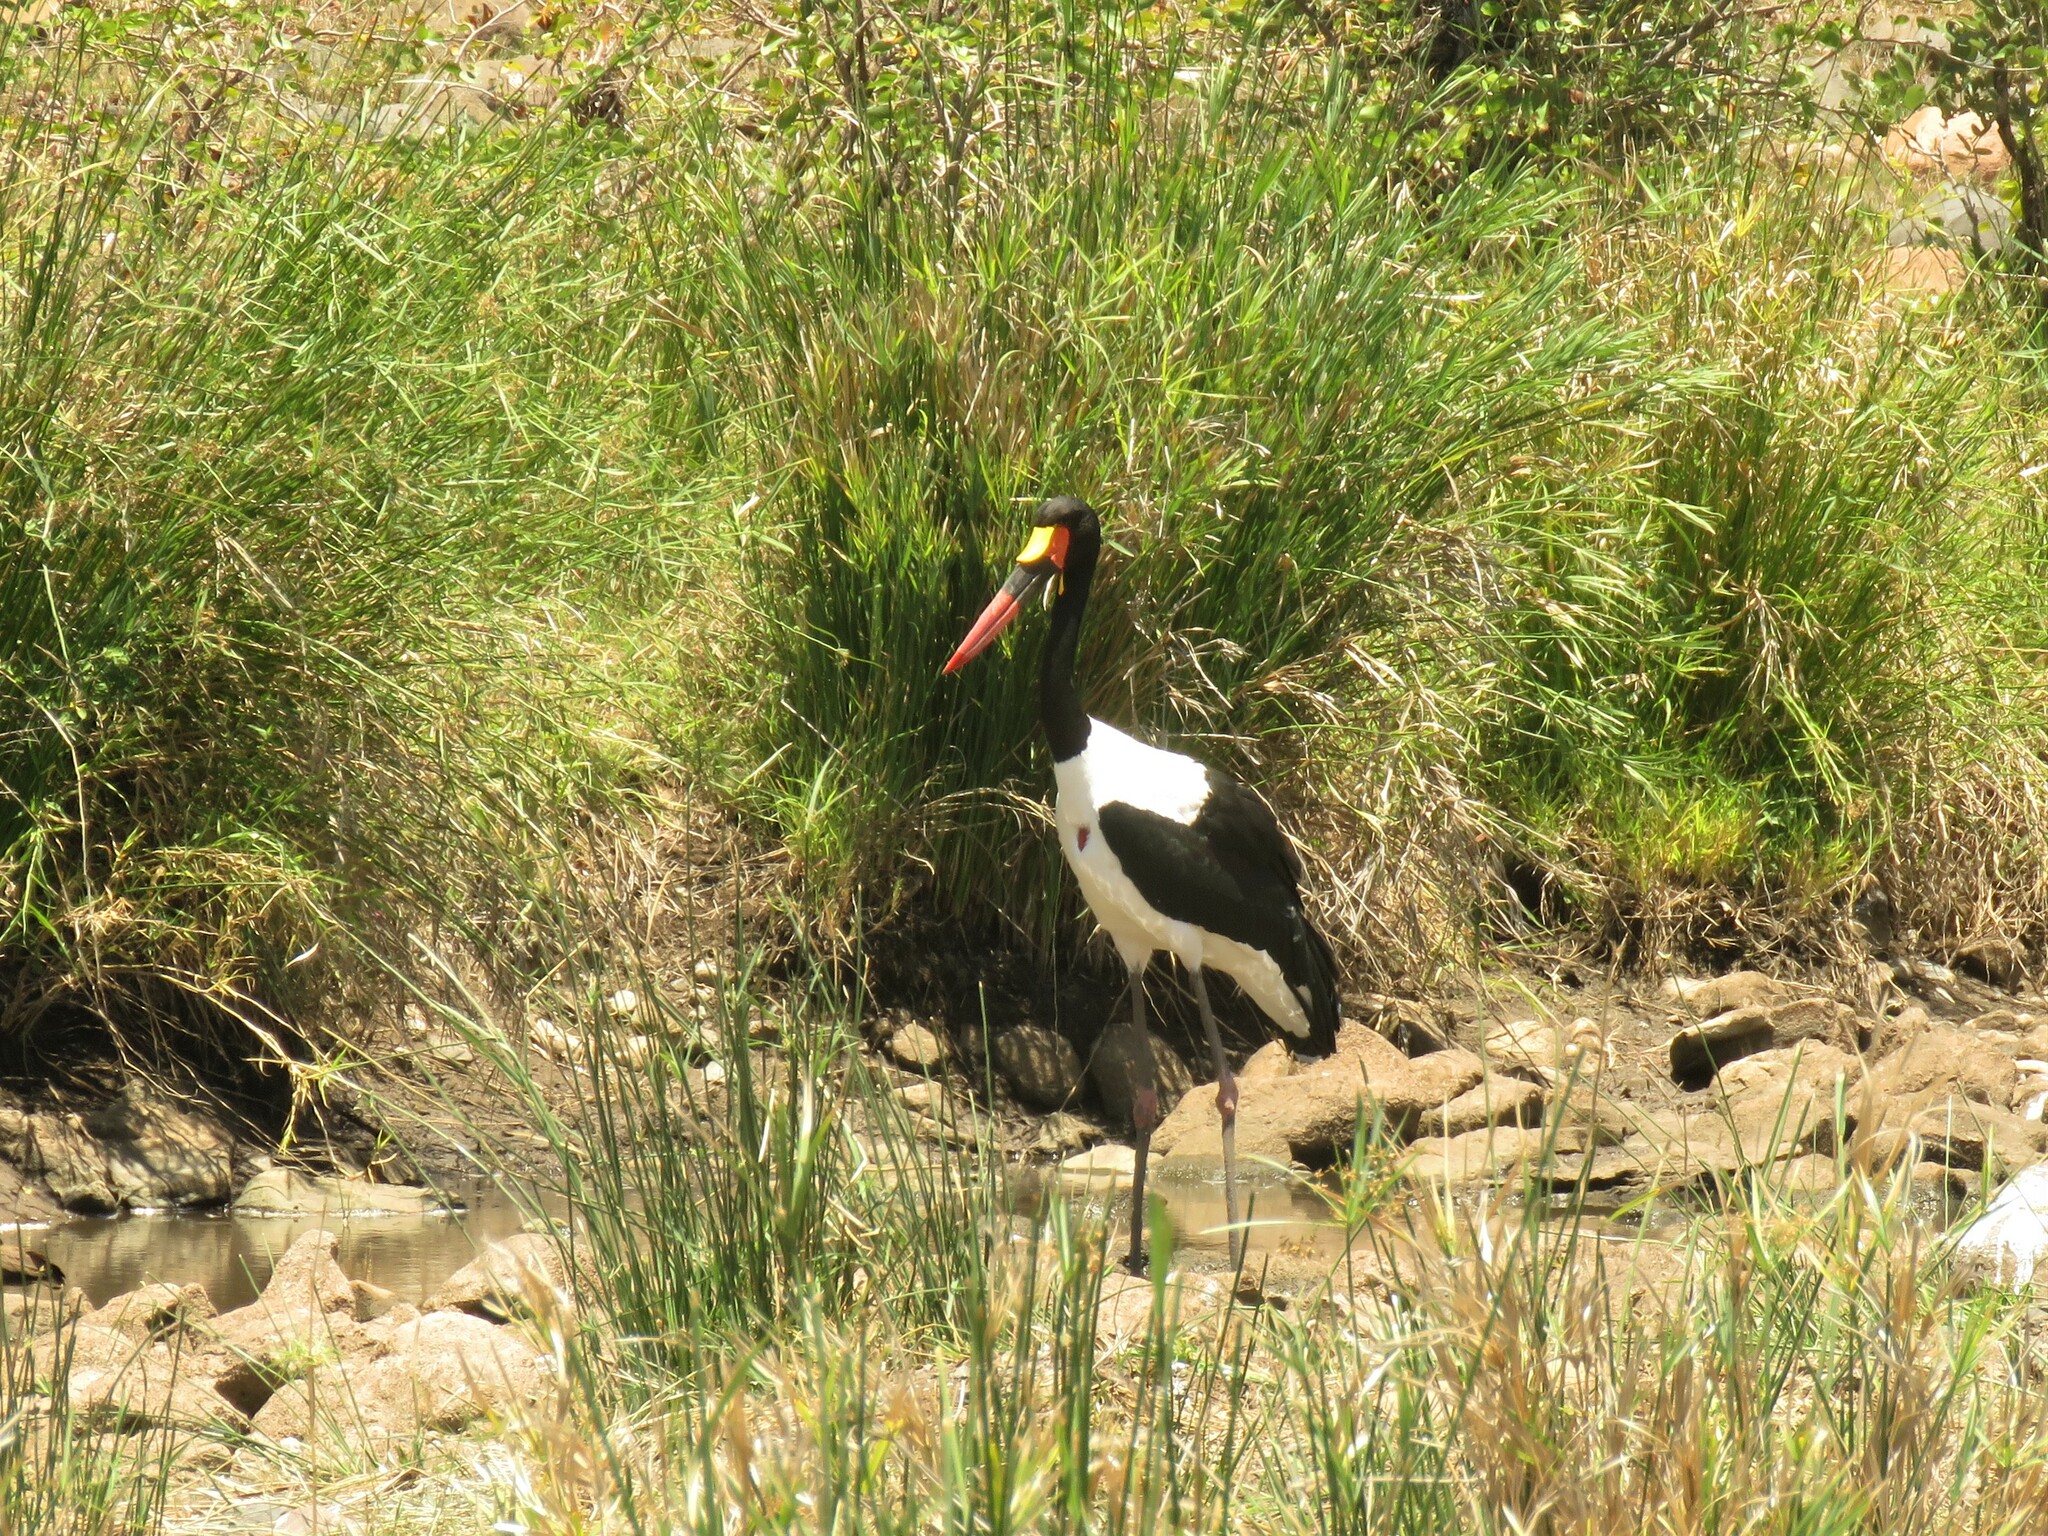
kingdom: Animalia
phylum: Chordata
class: Aves
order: Ciconiiformes
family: Ciconiidae
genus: Ephippiorhynchus
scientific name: Ephippiorhynchus senegalensis
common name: Saddle-billed stork
